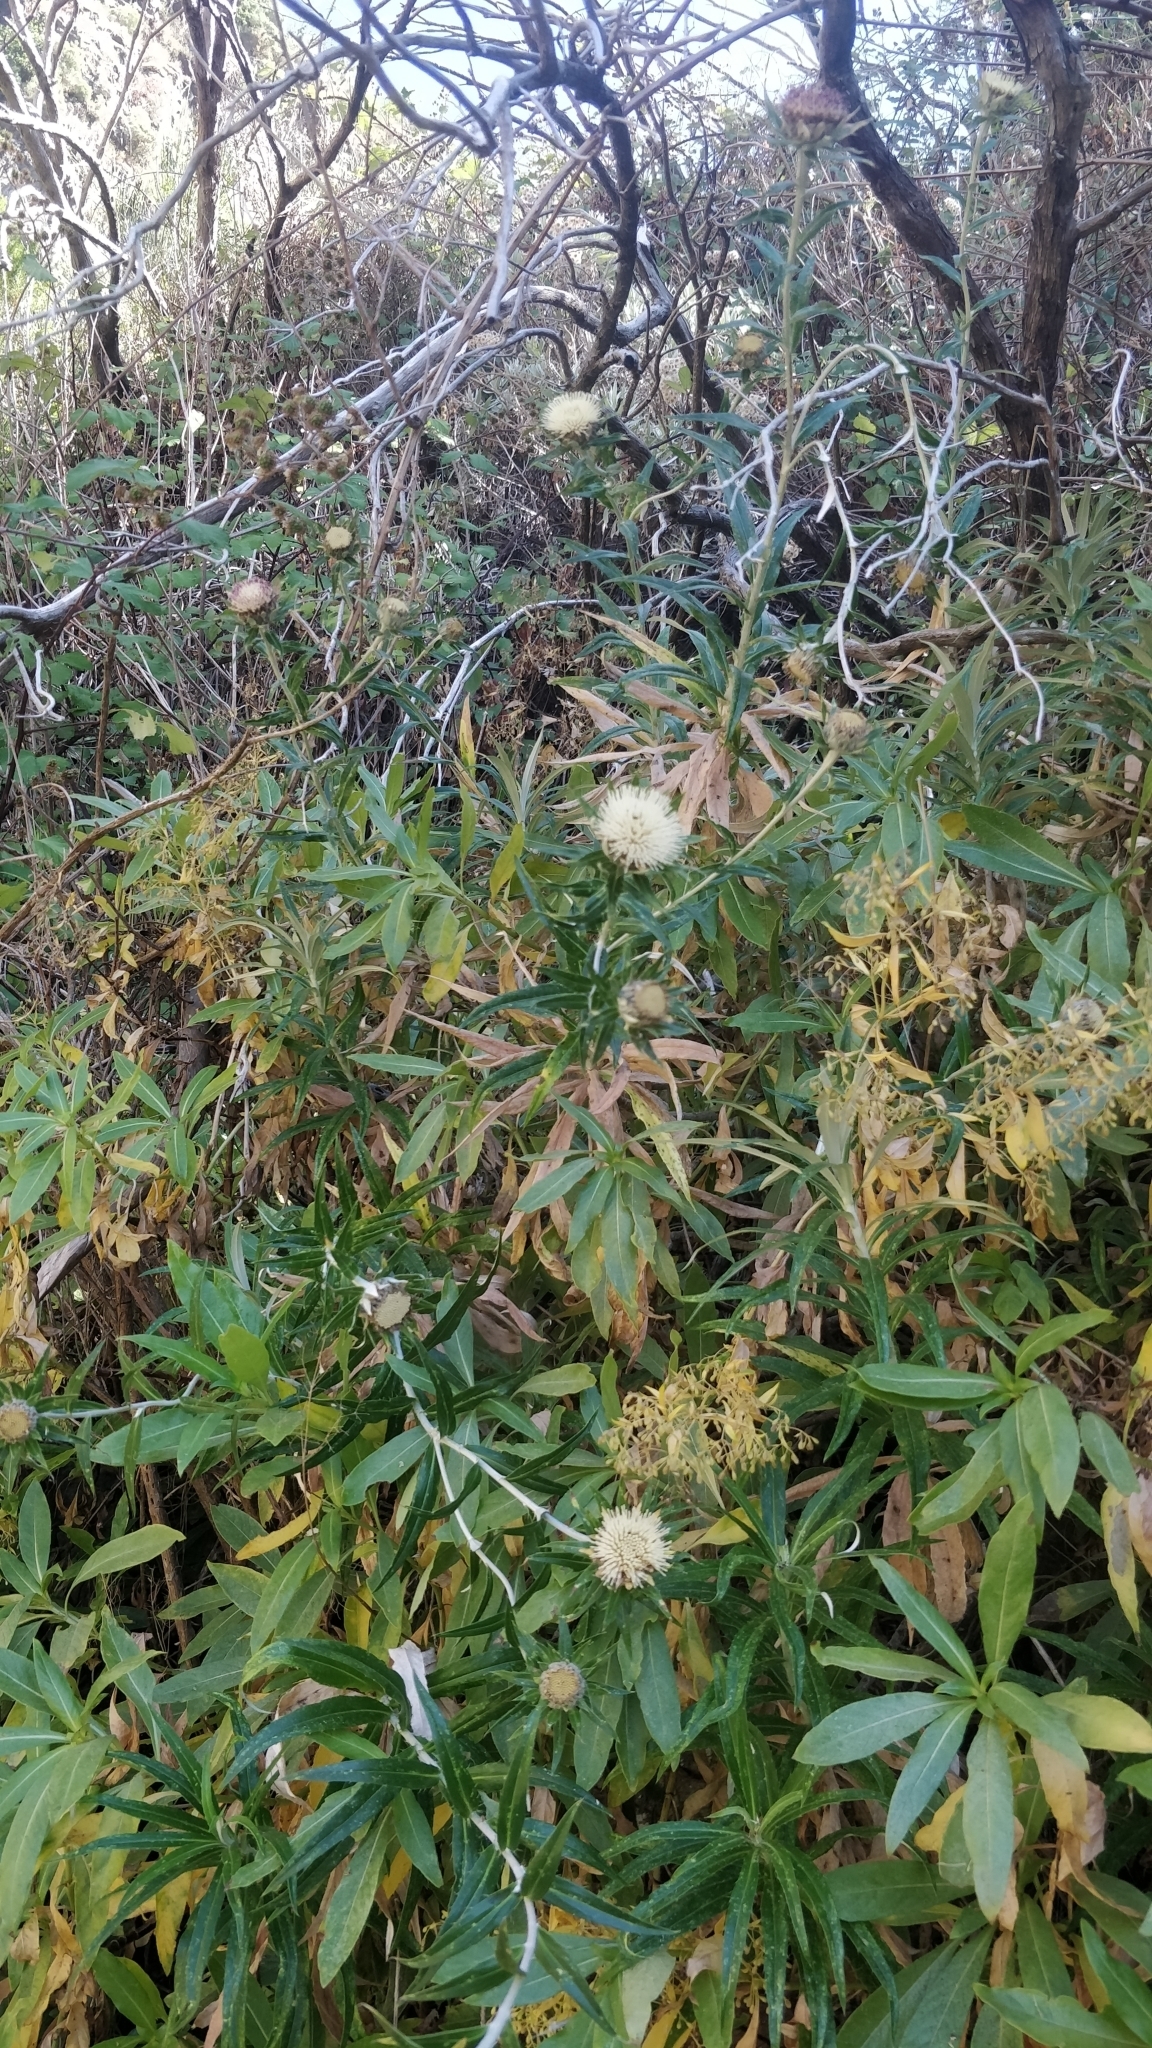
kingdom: Plantae
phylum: Tracheophyta
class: Magnoliopsida
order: Asterales
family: Asteraceae
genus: Carlina
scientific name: Carlina salicifolia
